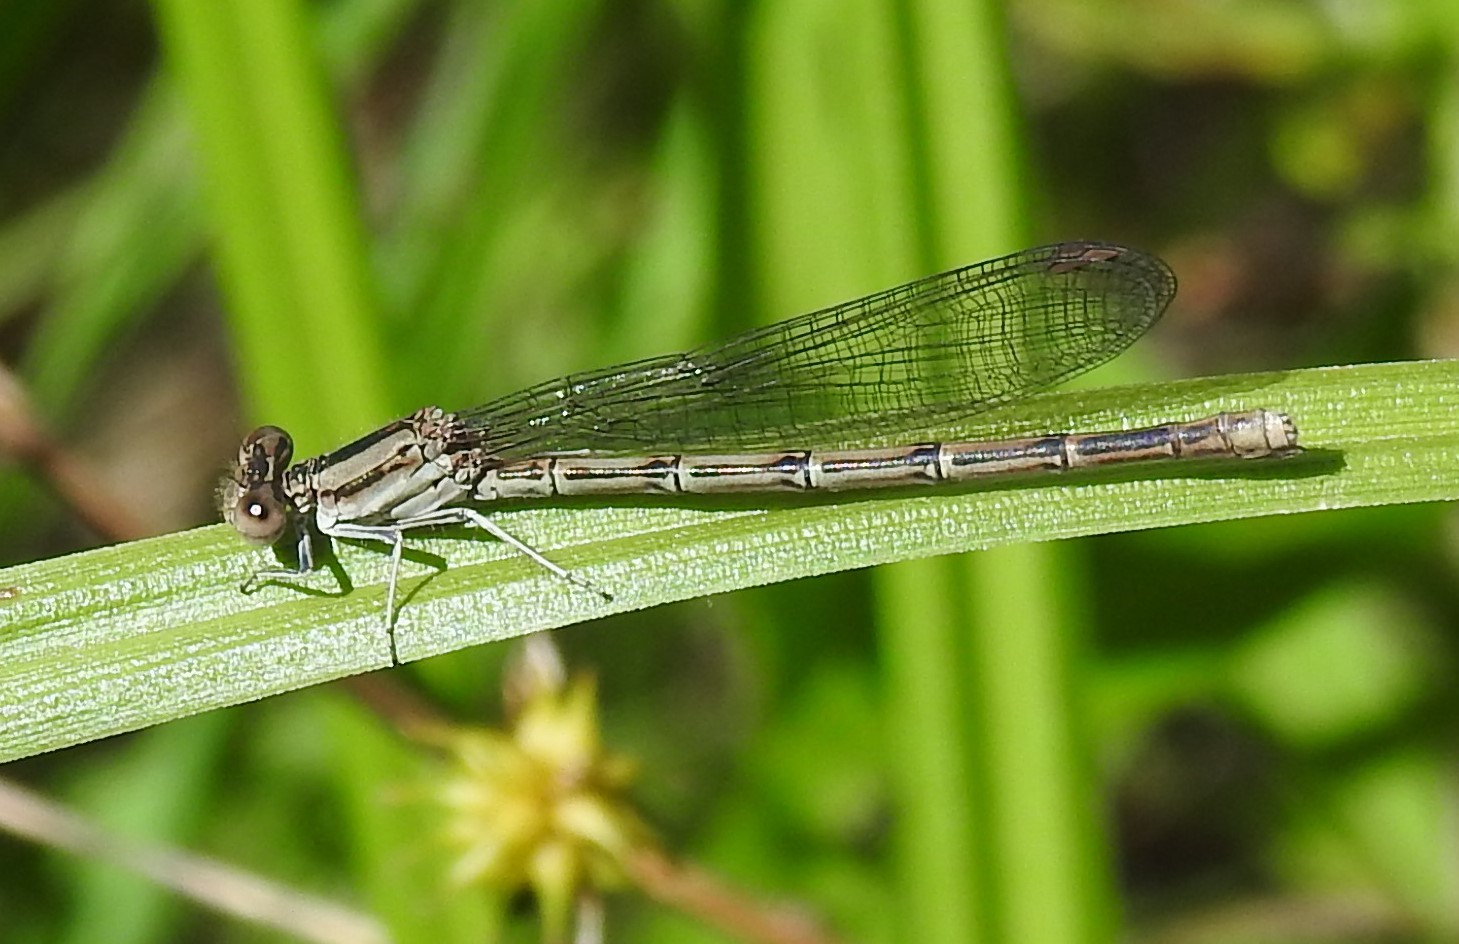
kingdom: Animalia
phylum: Arthropoda
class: Insecta
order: Odonata
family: Coenagrionidae
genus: Argia
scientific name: Argia fumipennis
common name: Variable dancer
